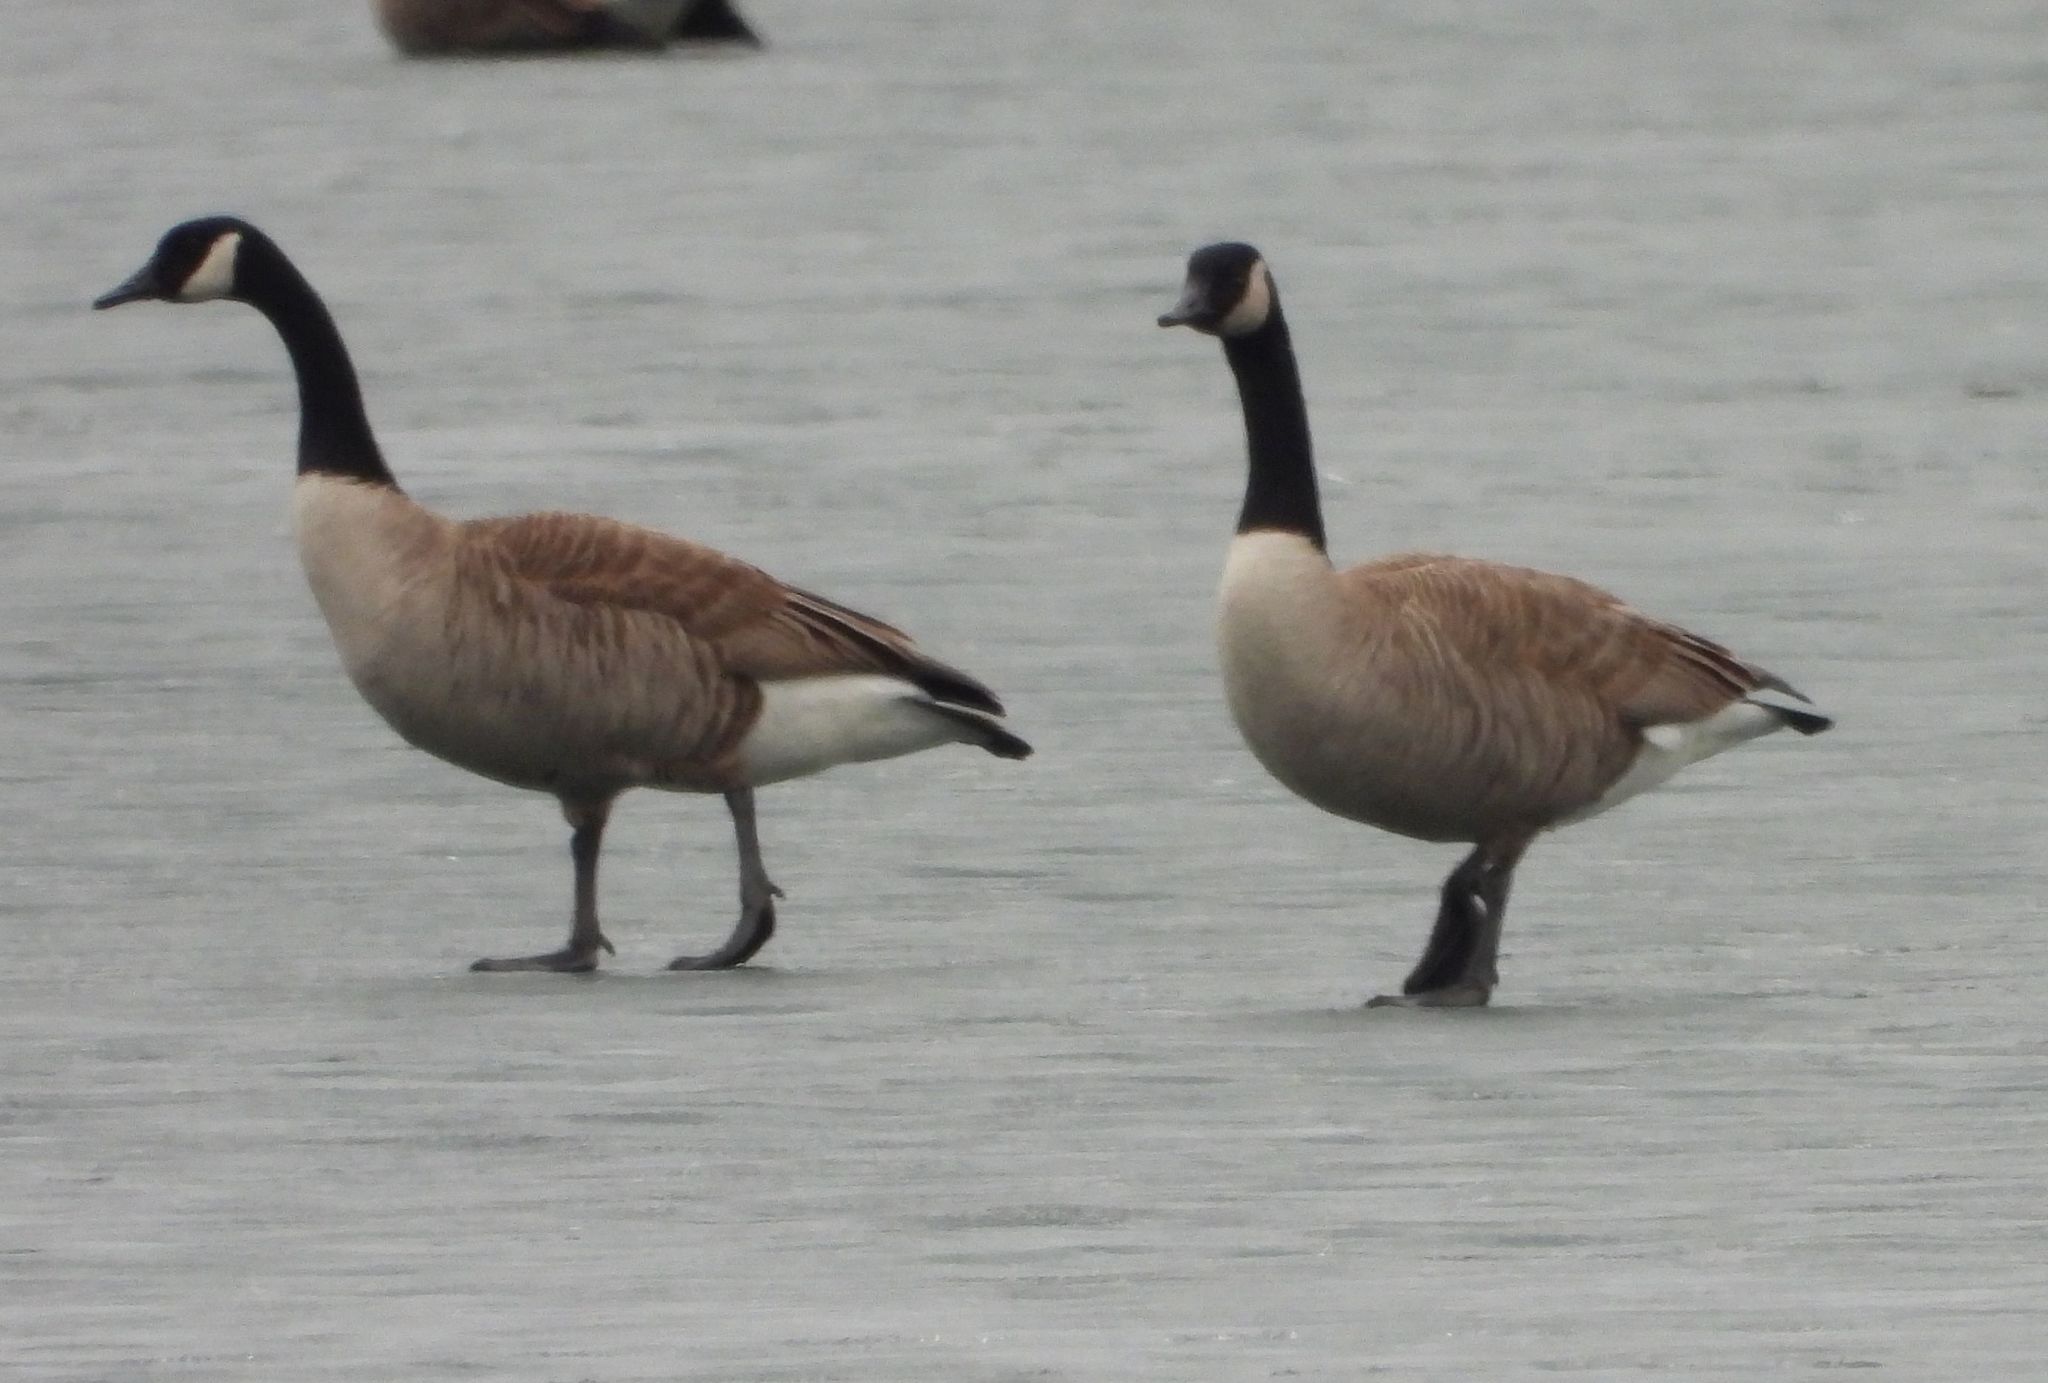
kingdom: Animalia
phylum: Chordata
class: Aves
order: Anseriformes
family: Anatidae
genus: Branta
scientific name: Branta canadensis
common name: Canada goose
